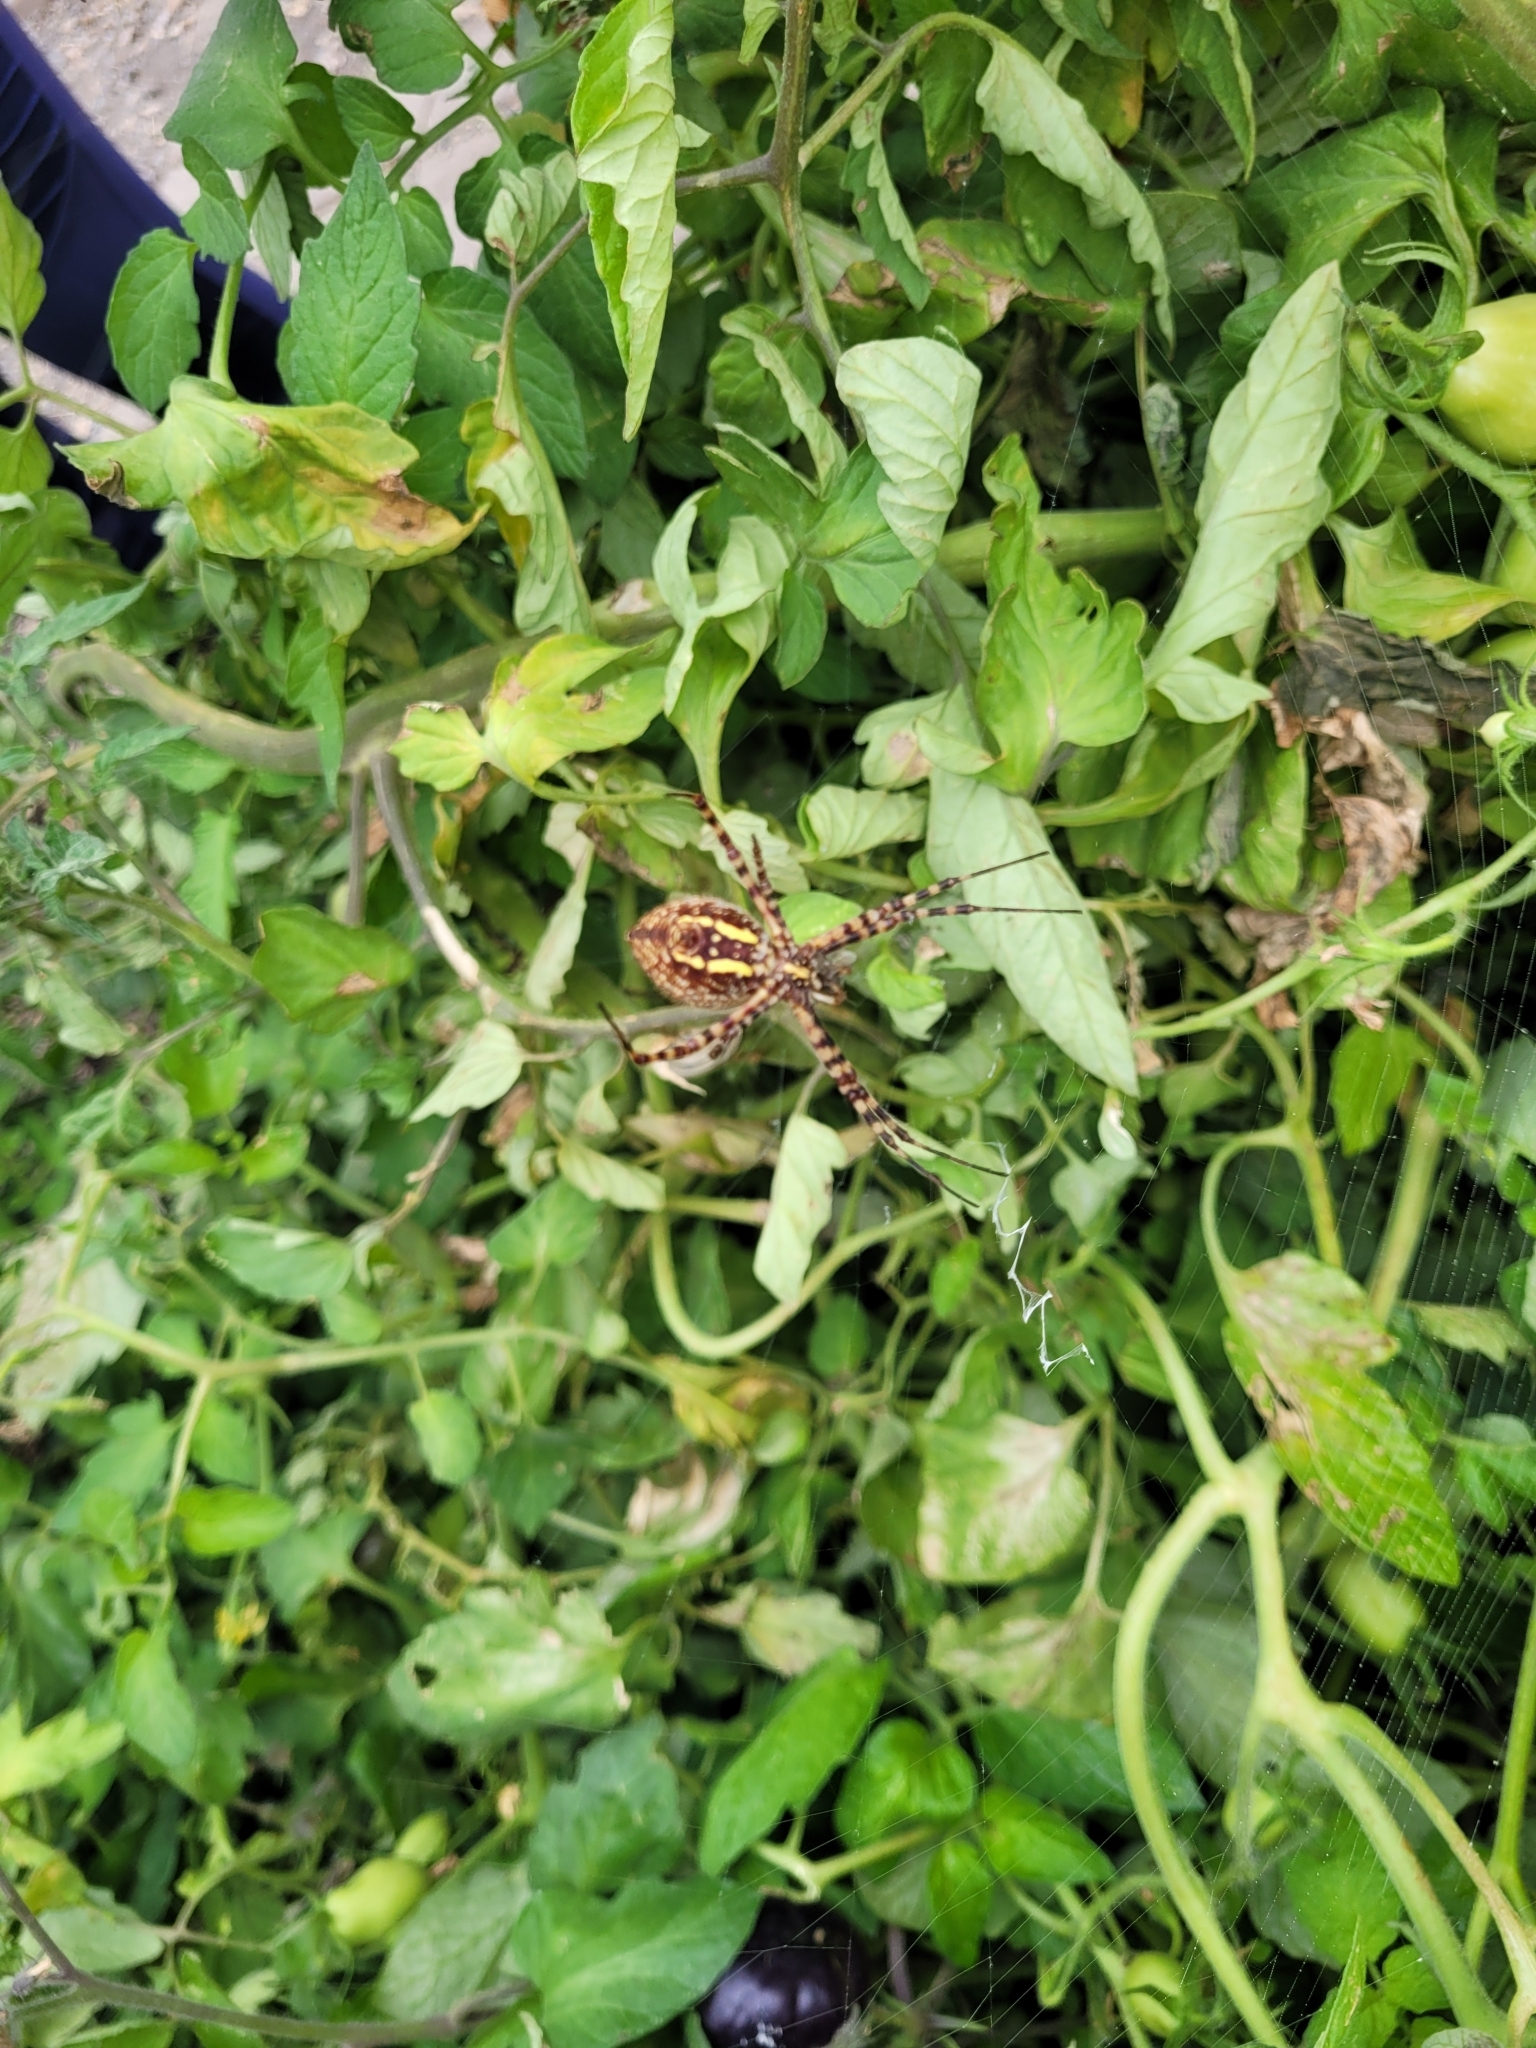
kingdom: Animalia
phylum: Arthropoda
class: Arachnida
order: Araneae
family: Araneidae
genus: Argiope
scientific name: Argiope trifasciata
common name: Banded garden spider
